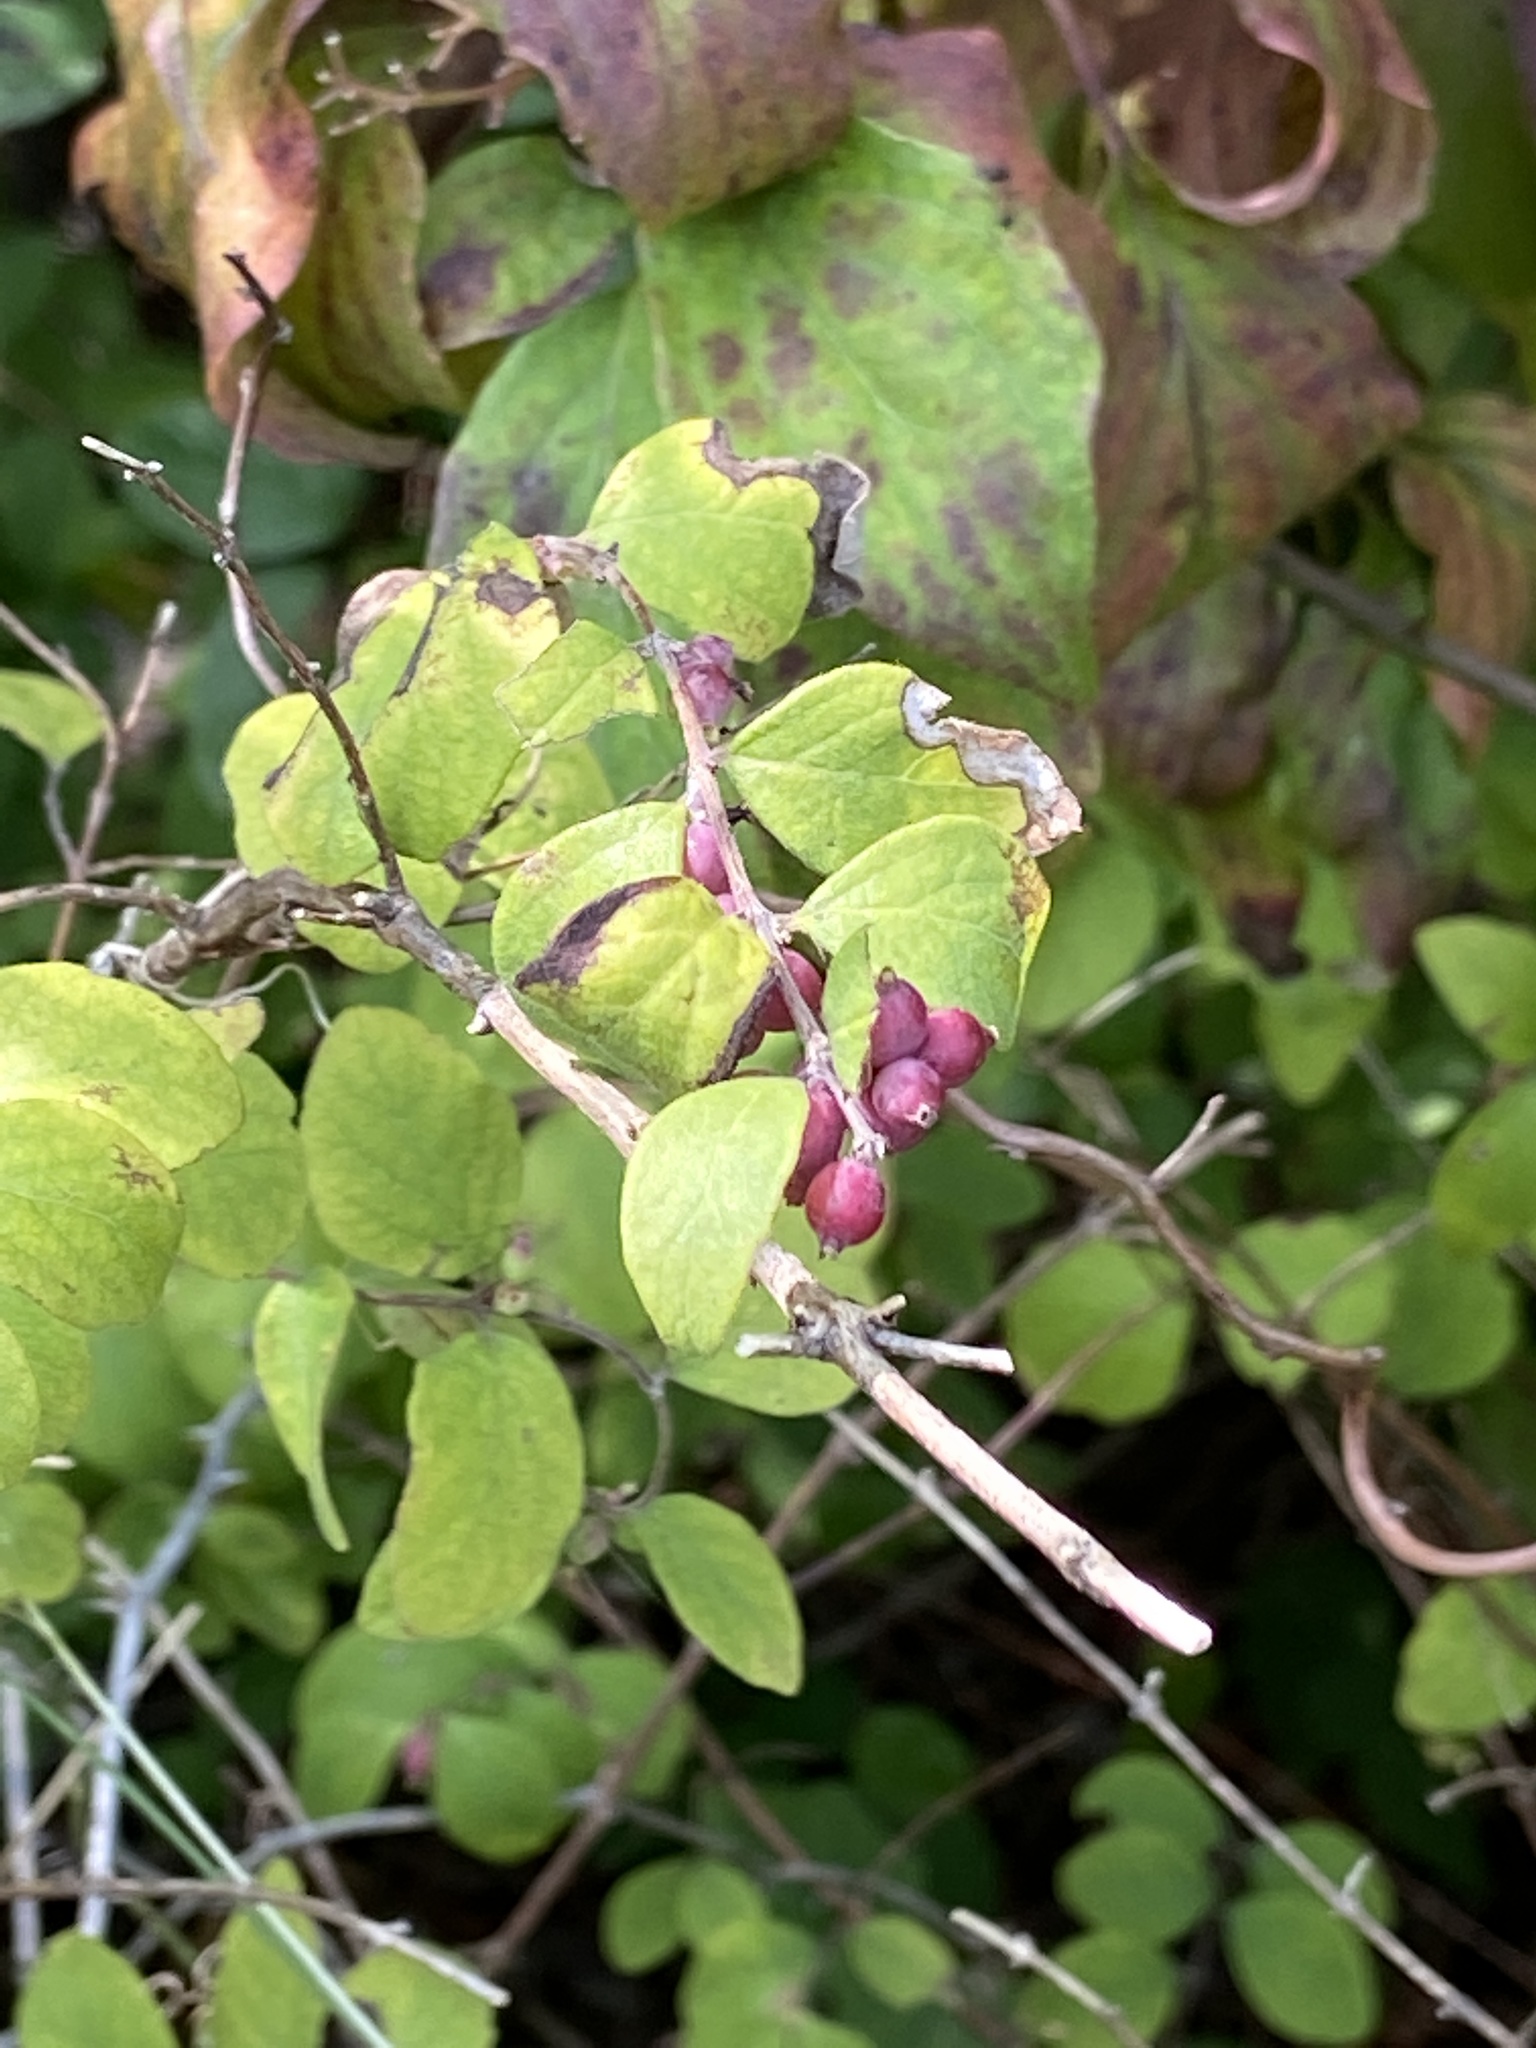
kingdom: Plantae
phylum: Tracheophyta
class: Magnoliopsida
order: Dipsacales
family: Caprifoliaceae
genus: Symphoricarpos
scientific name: Symphoricarpos orbiculatus
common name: Coralberry
